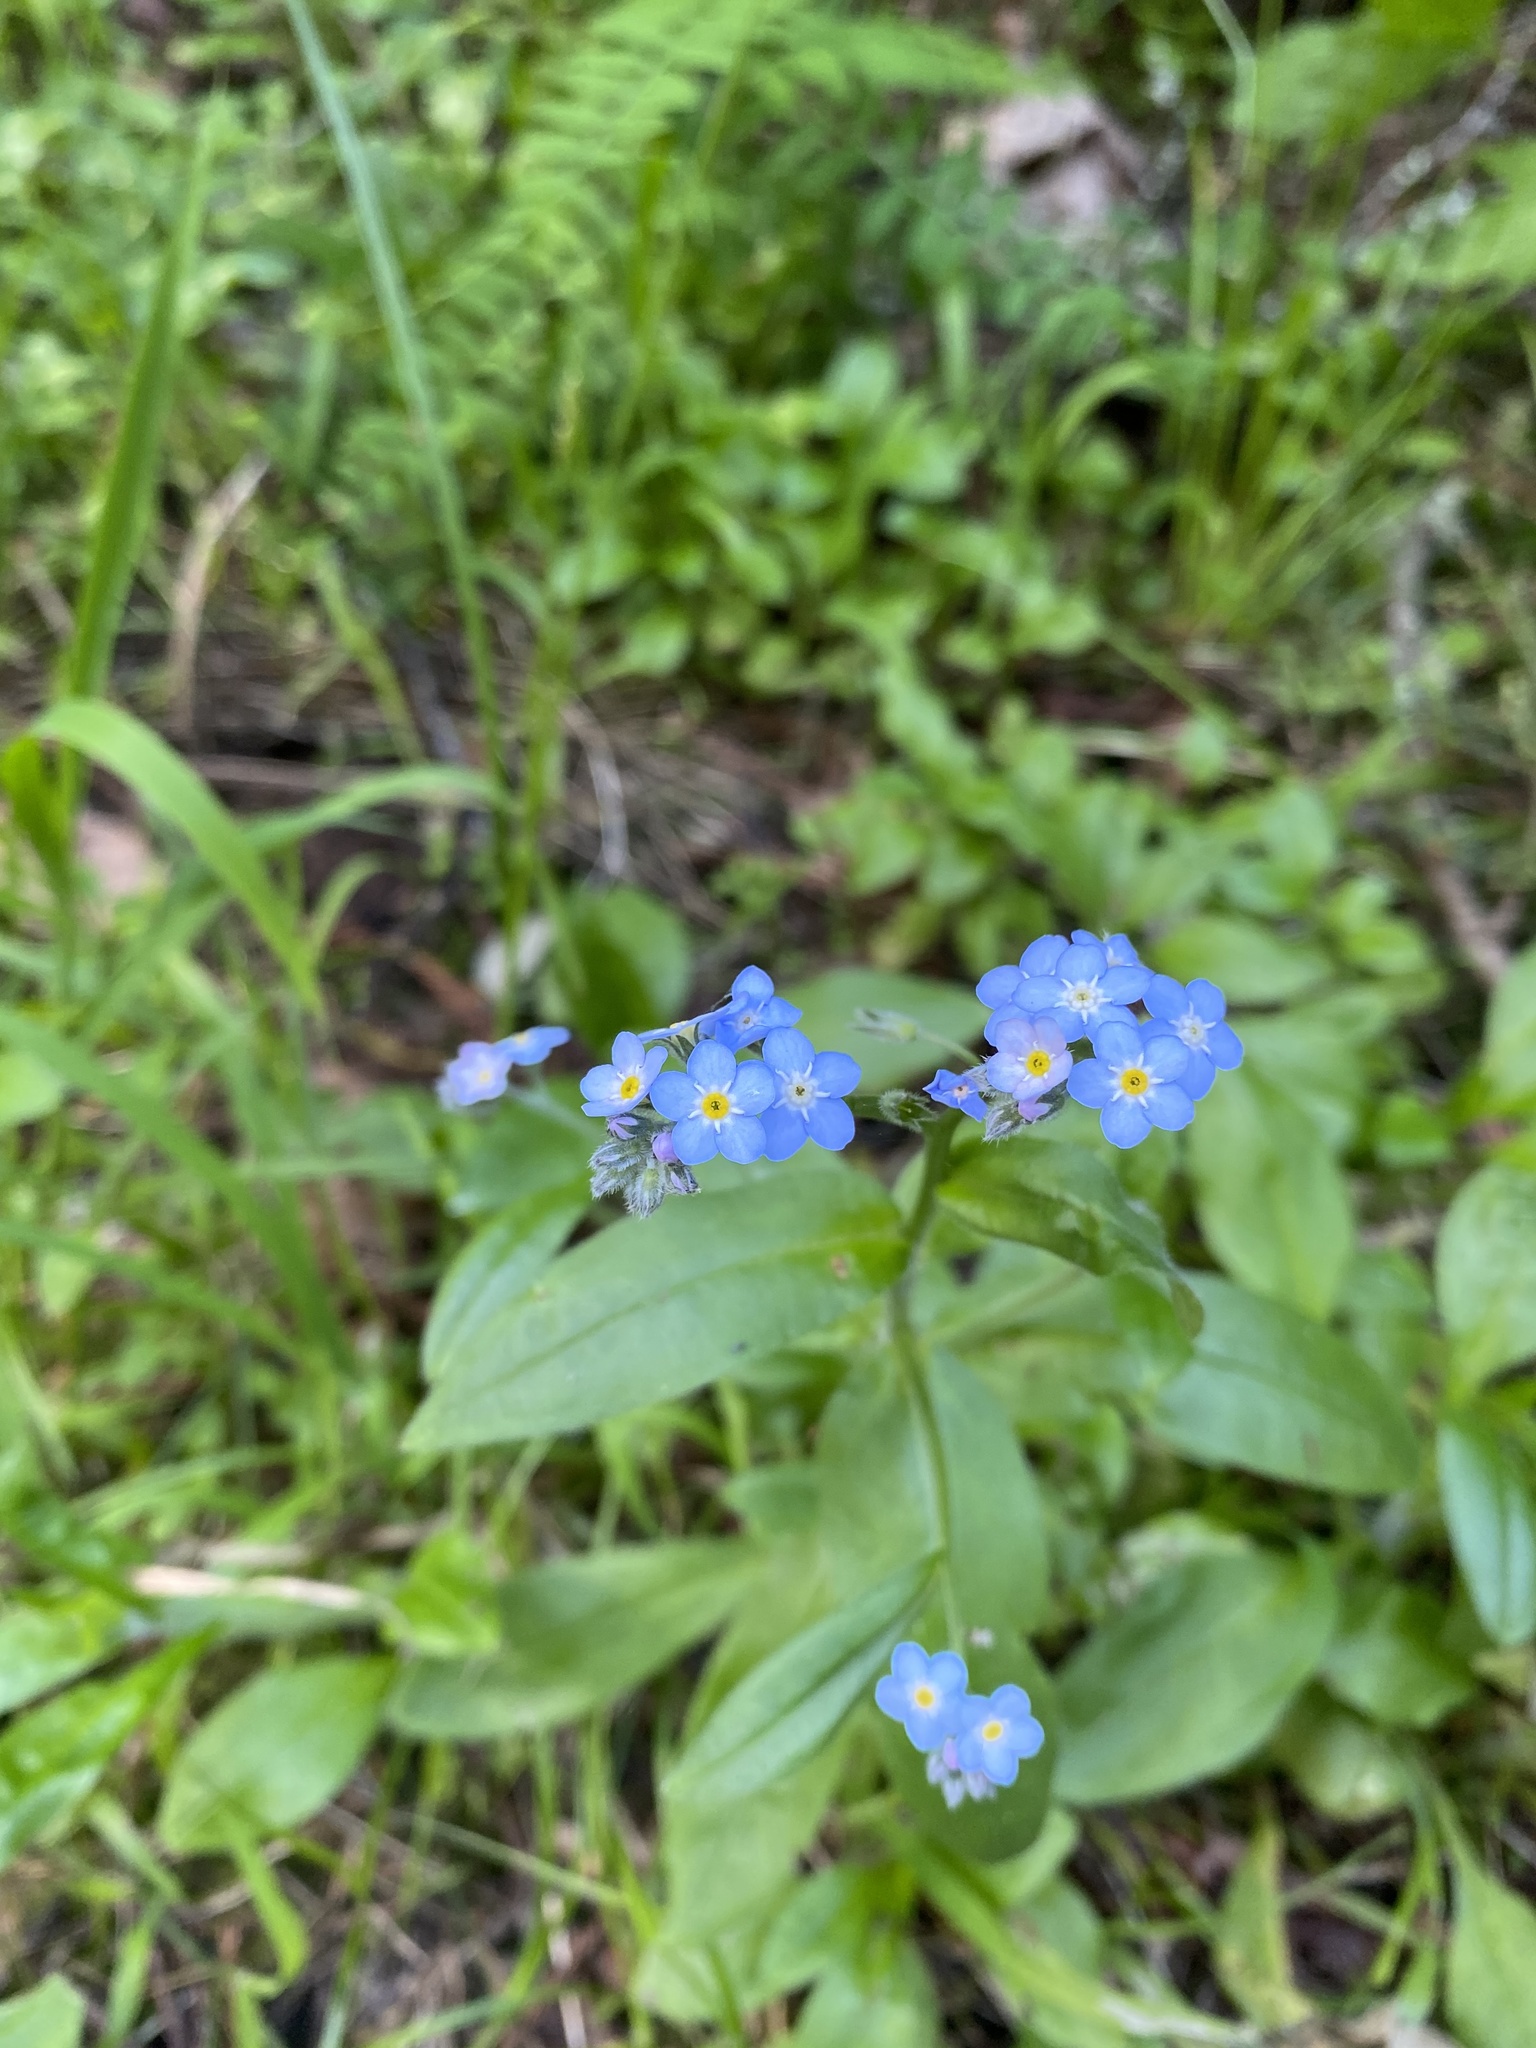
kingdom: Plantae
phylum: Tracheophyta
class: Magnoliopsida
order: Boraginales
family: Boraginaceae
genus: Myosotis
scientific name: Myosotis latifolia
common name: Broadleaf forget-me-not
